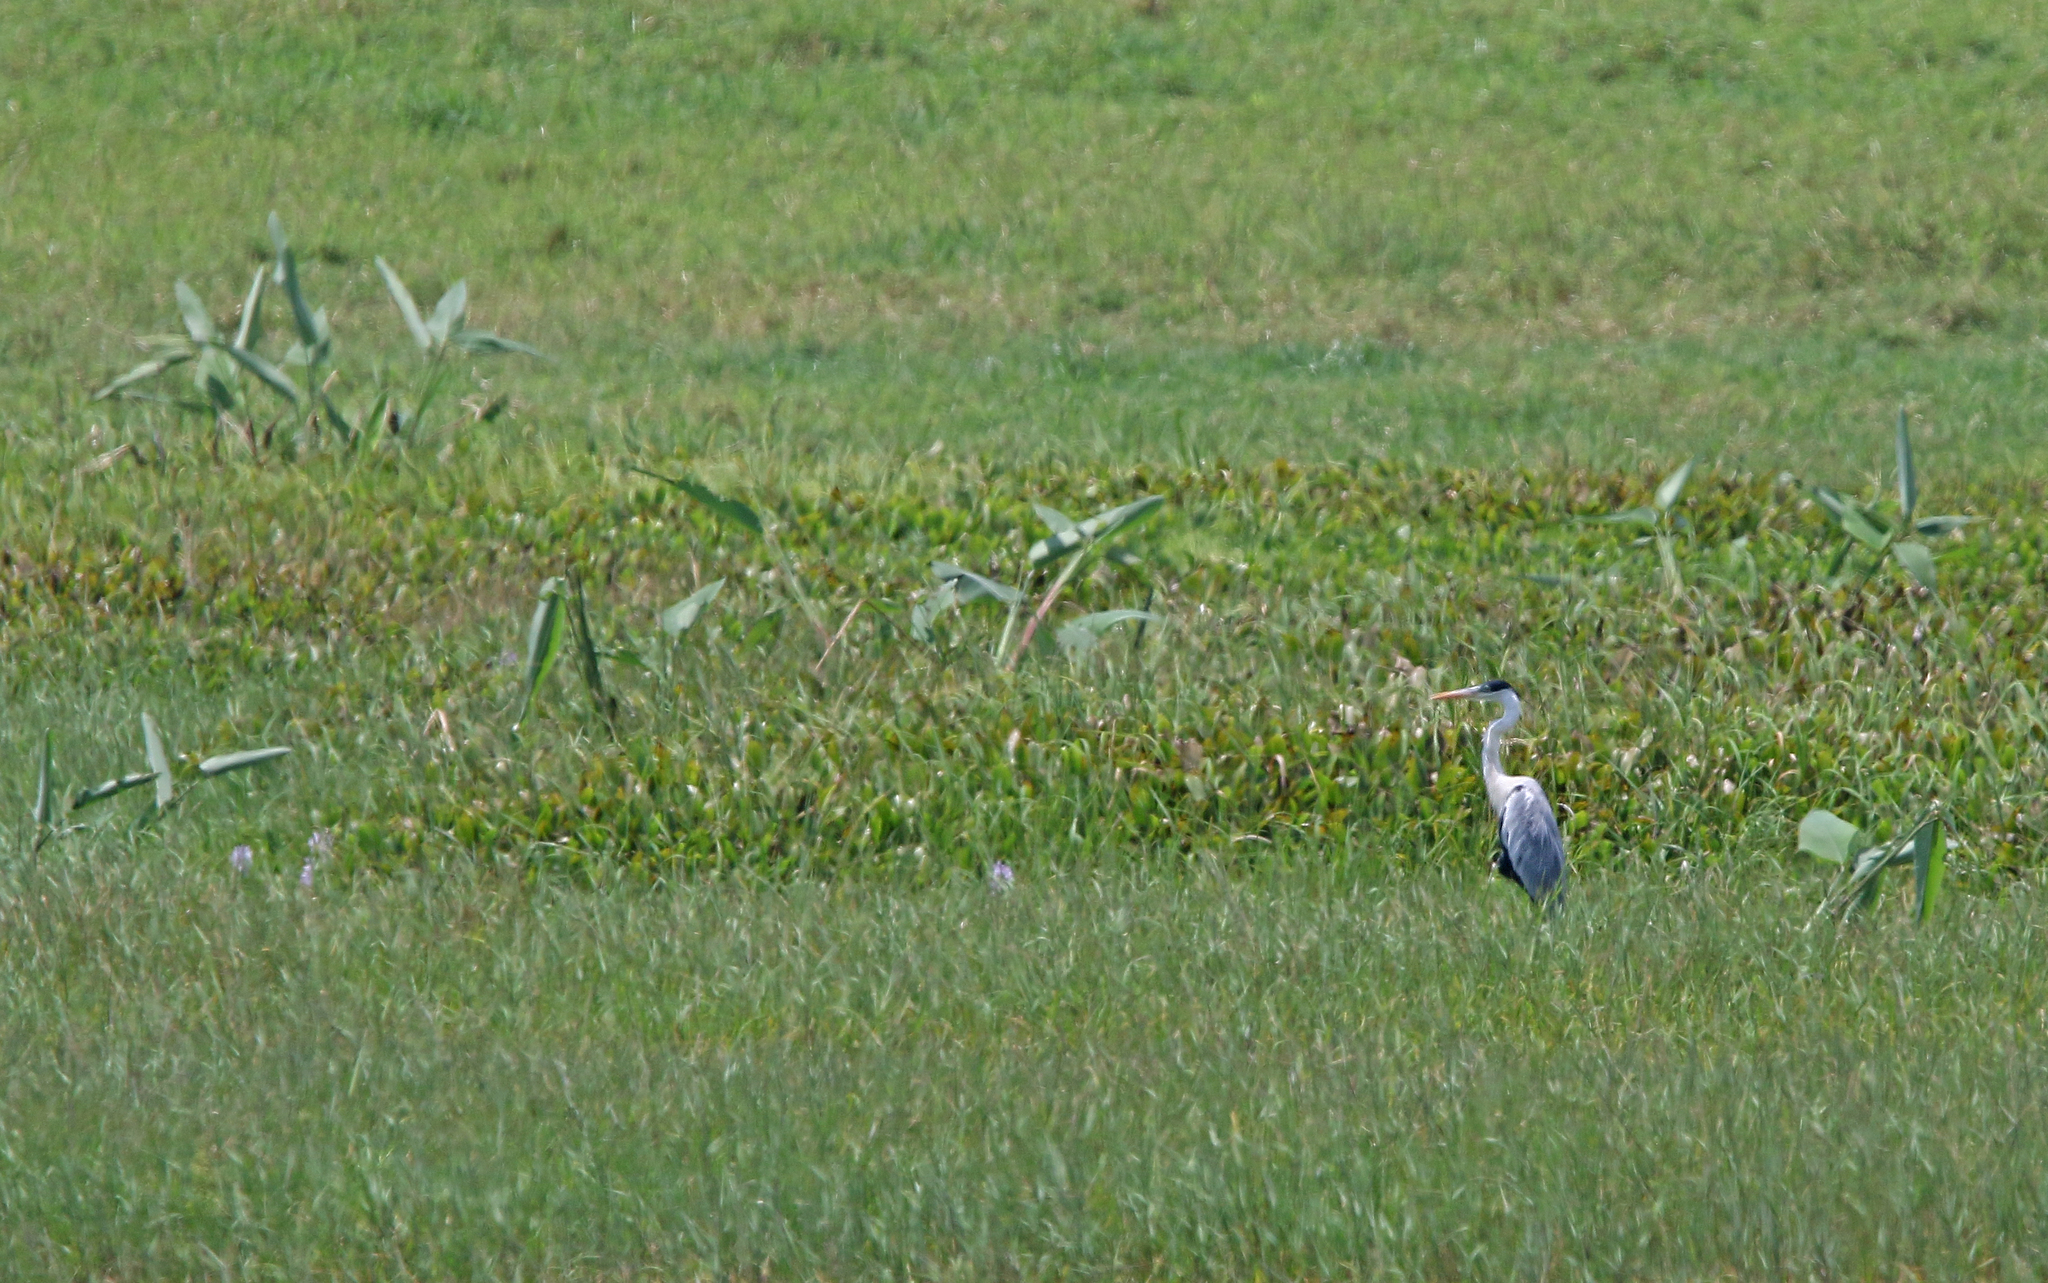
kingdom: Animalia
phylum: Chordata
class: Aves
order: Pelecaniformes
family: Ardeidae
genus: Ardea
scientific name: Ardea cocoi
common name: Cocoi heron
